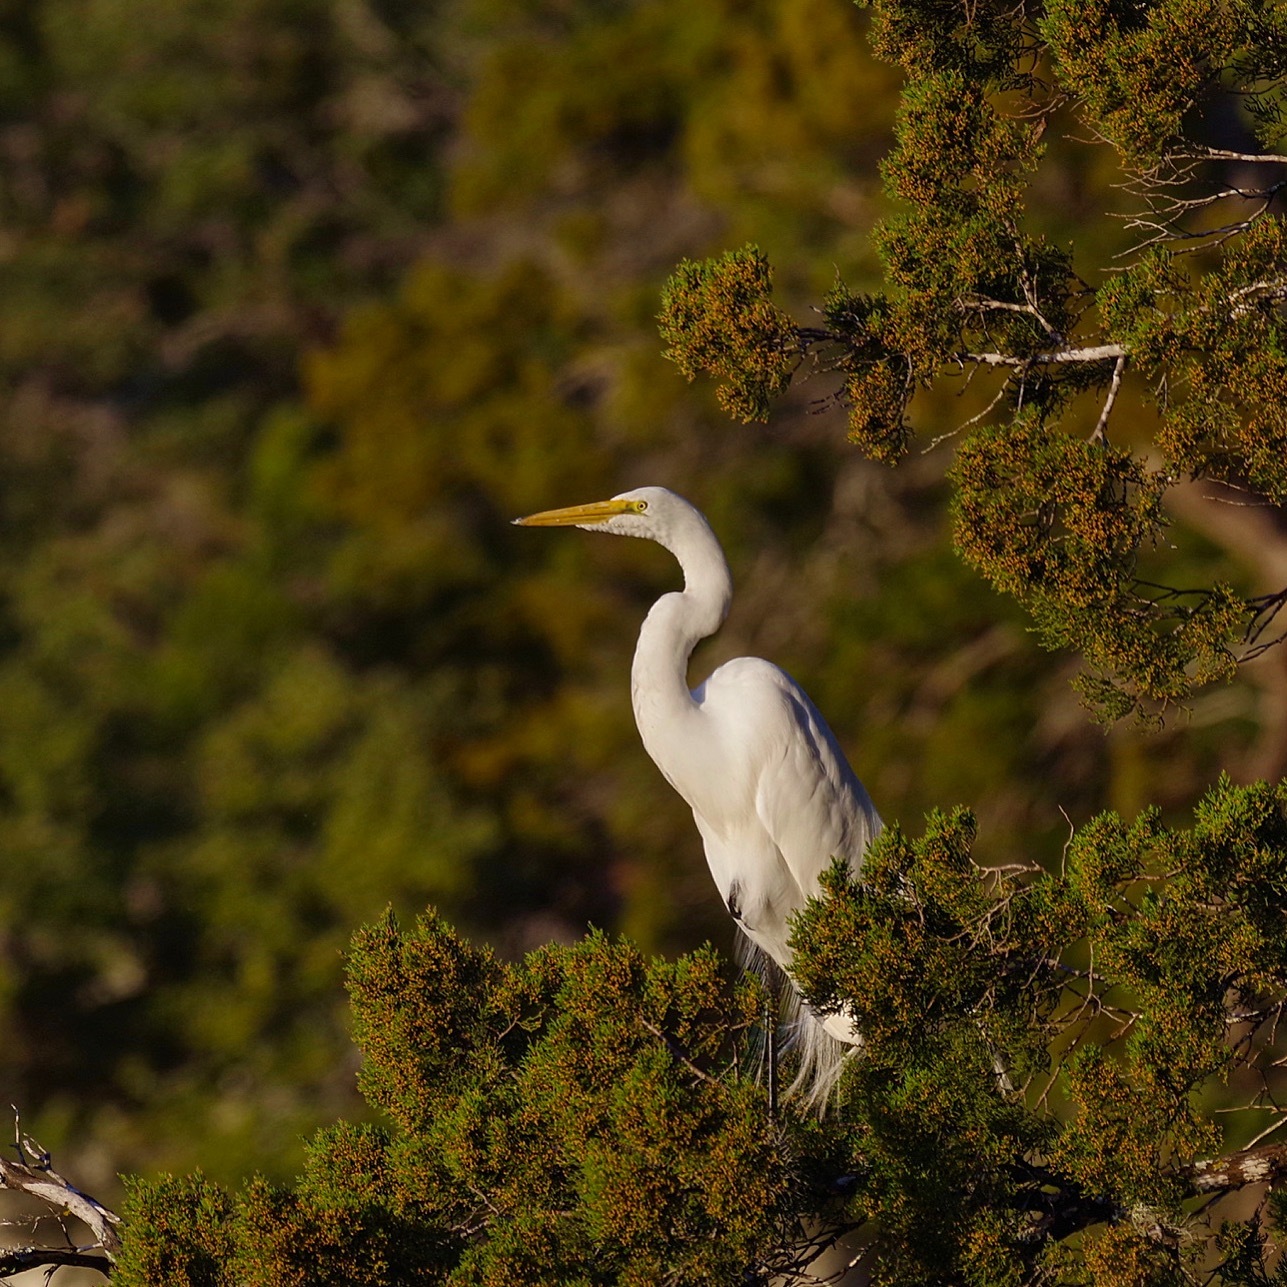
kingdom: Animalia
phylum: Chordata
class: Aves
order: Pelecaniformes
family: Ardeidae
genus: Ardea
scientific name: Ardea alba
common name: Great egret
